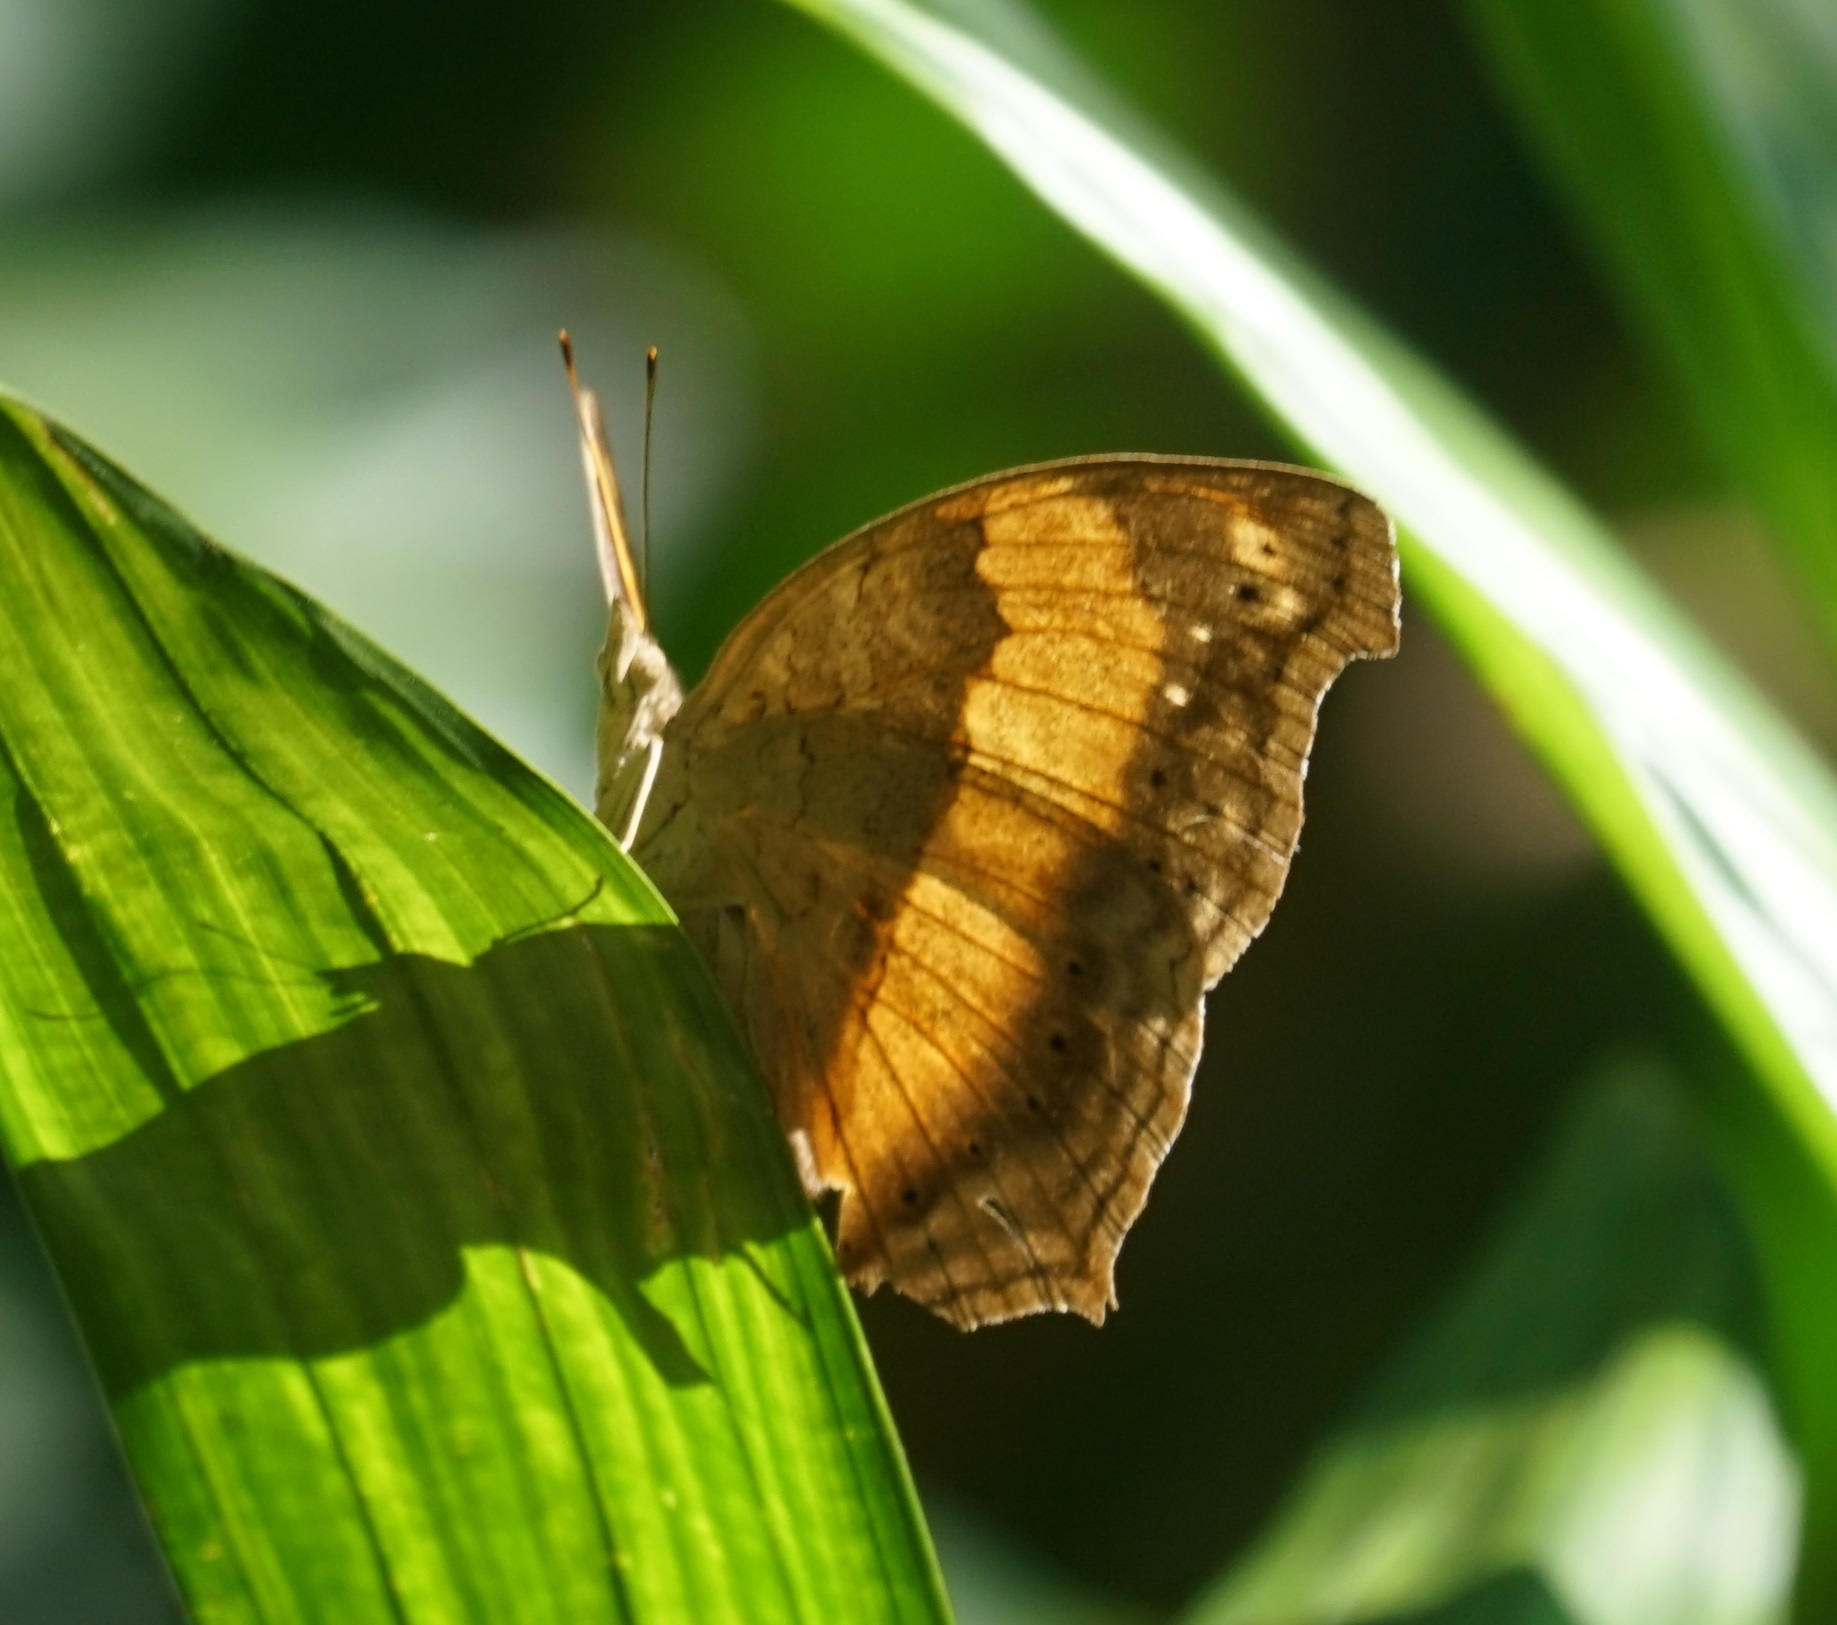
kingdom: Animalia
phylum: Arthropoda
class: Insecta
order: Lepidoptera
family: Nymphalidae
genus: Yoma
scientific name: Yoma sabina
